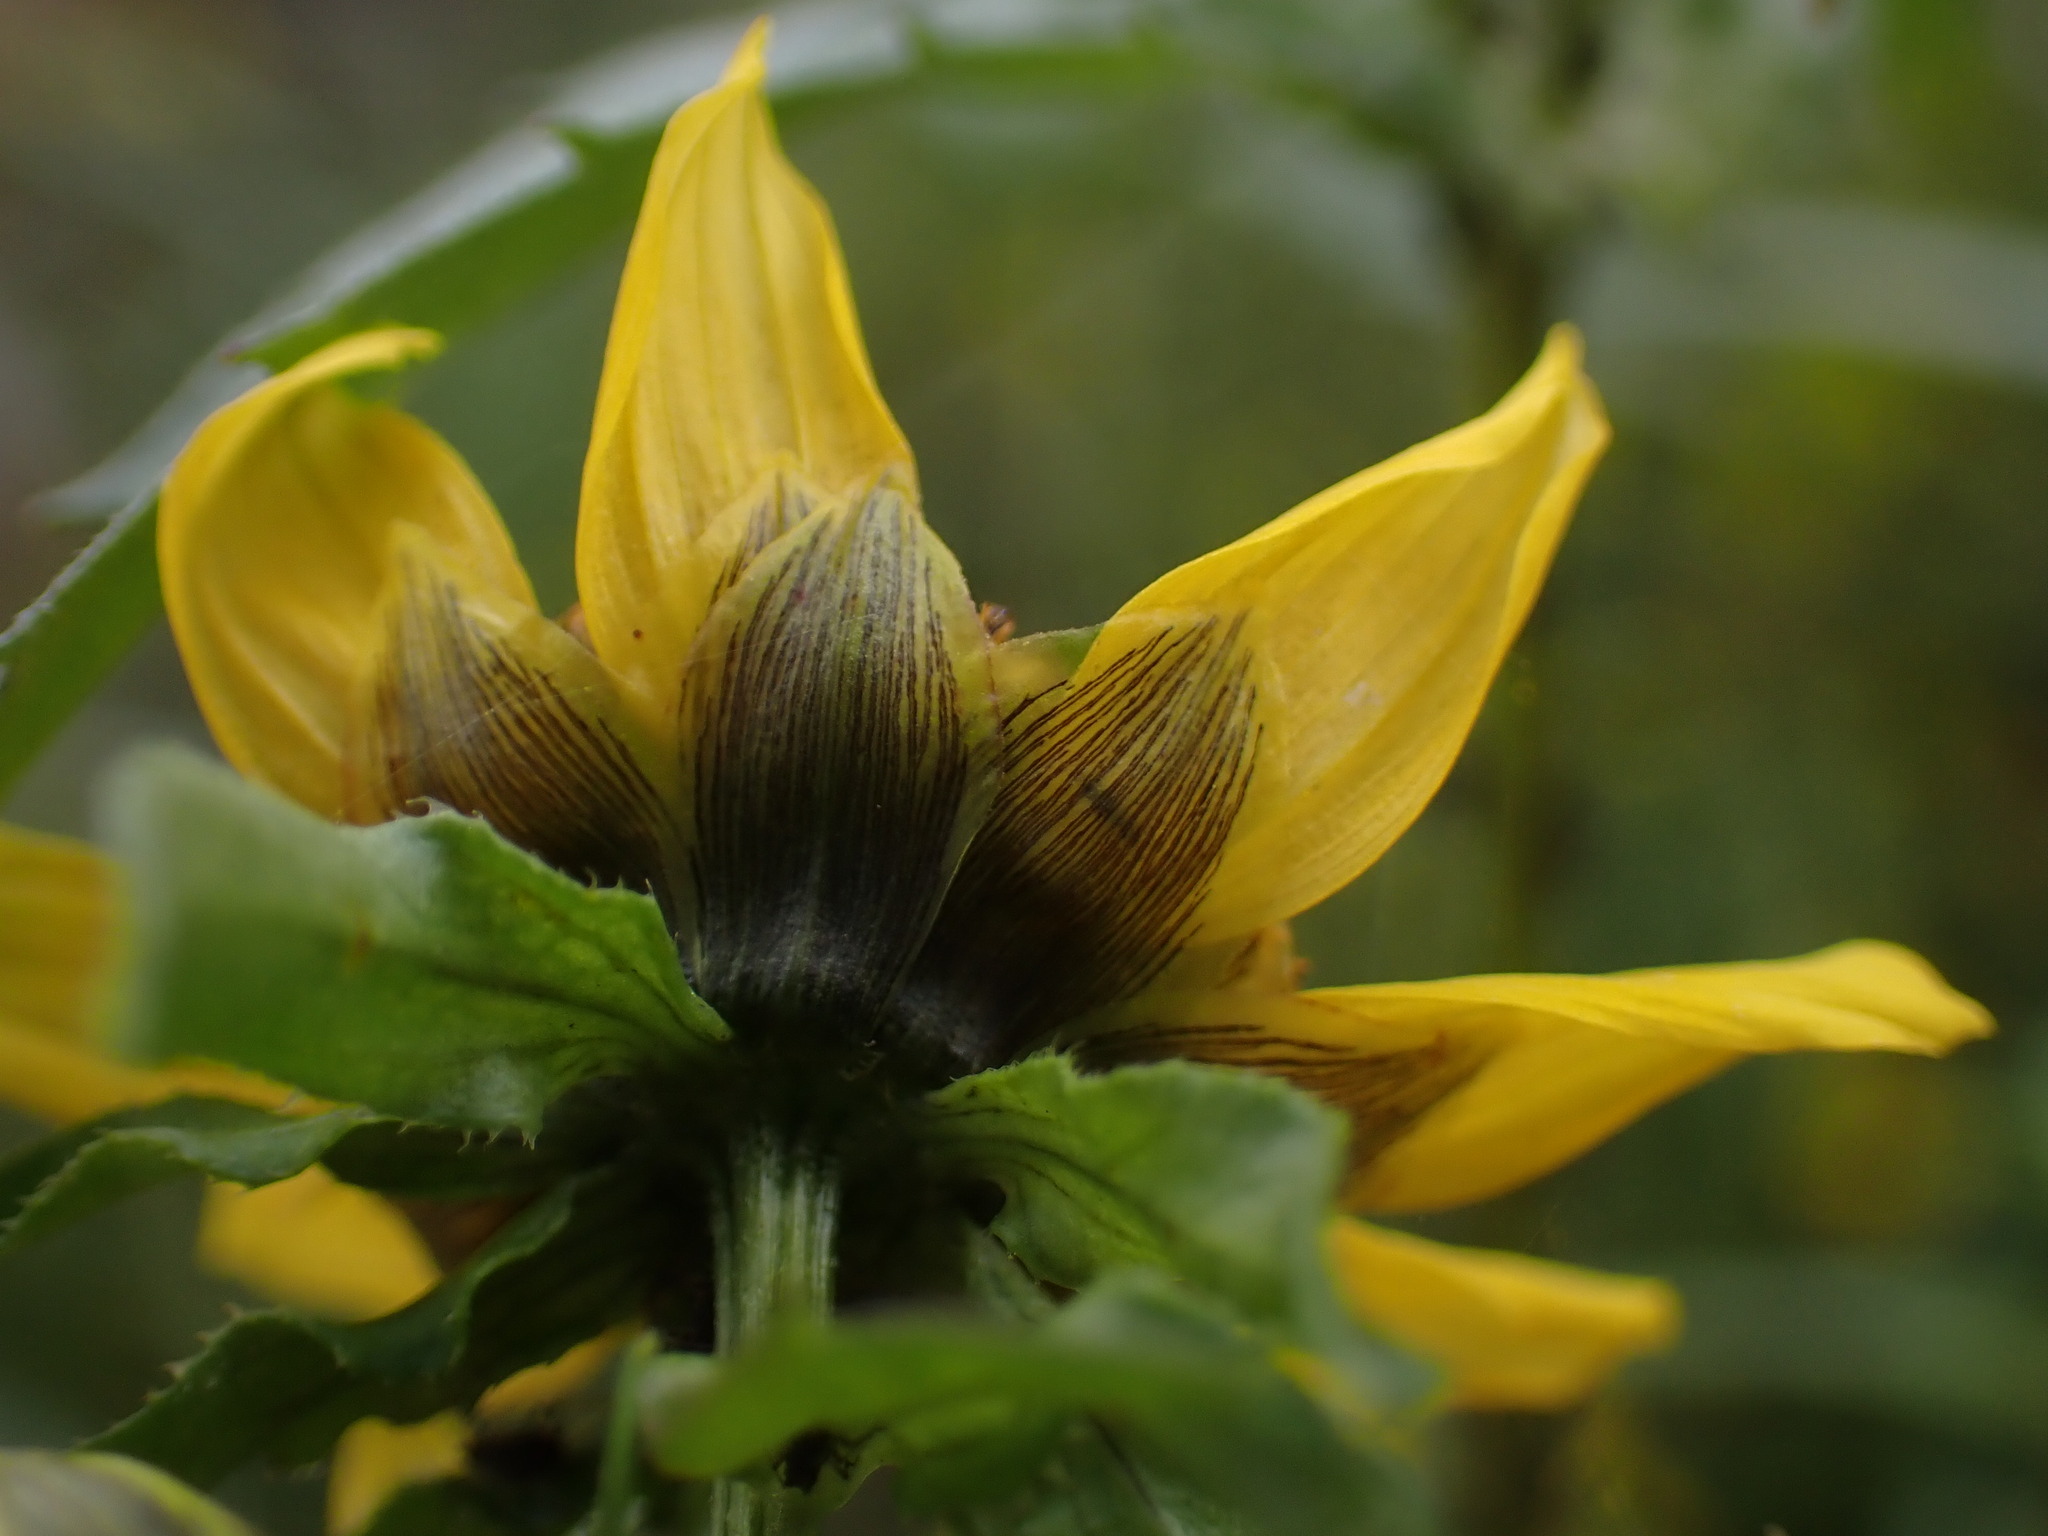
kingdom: Plantae
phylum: Tracheophyta
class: Magnoliopsida
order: Asterales
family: Asteraceae
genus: Bidens
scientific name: Bidens cernua
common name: Nodding bur-marigold
